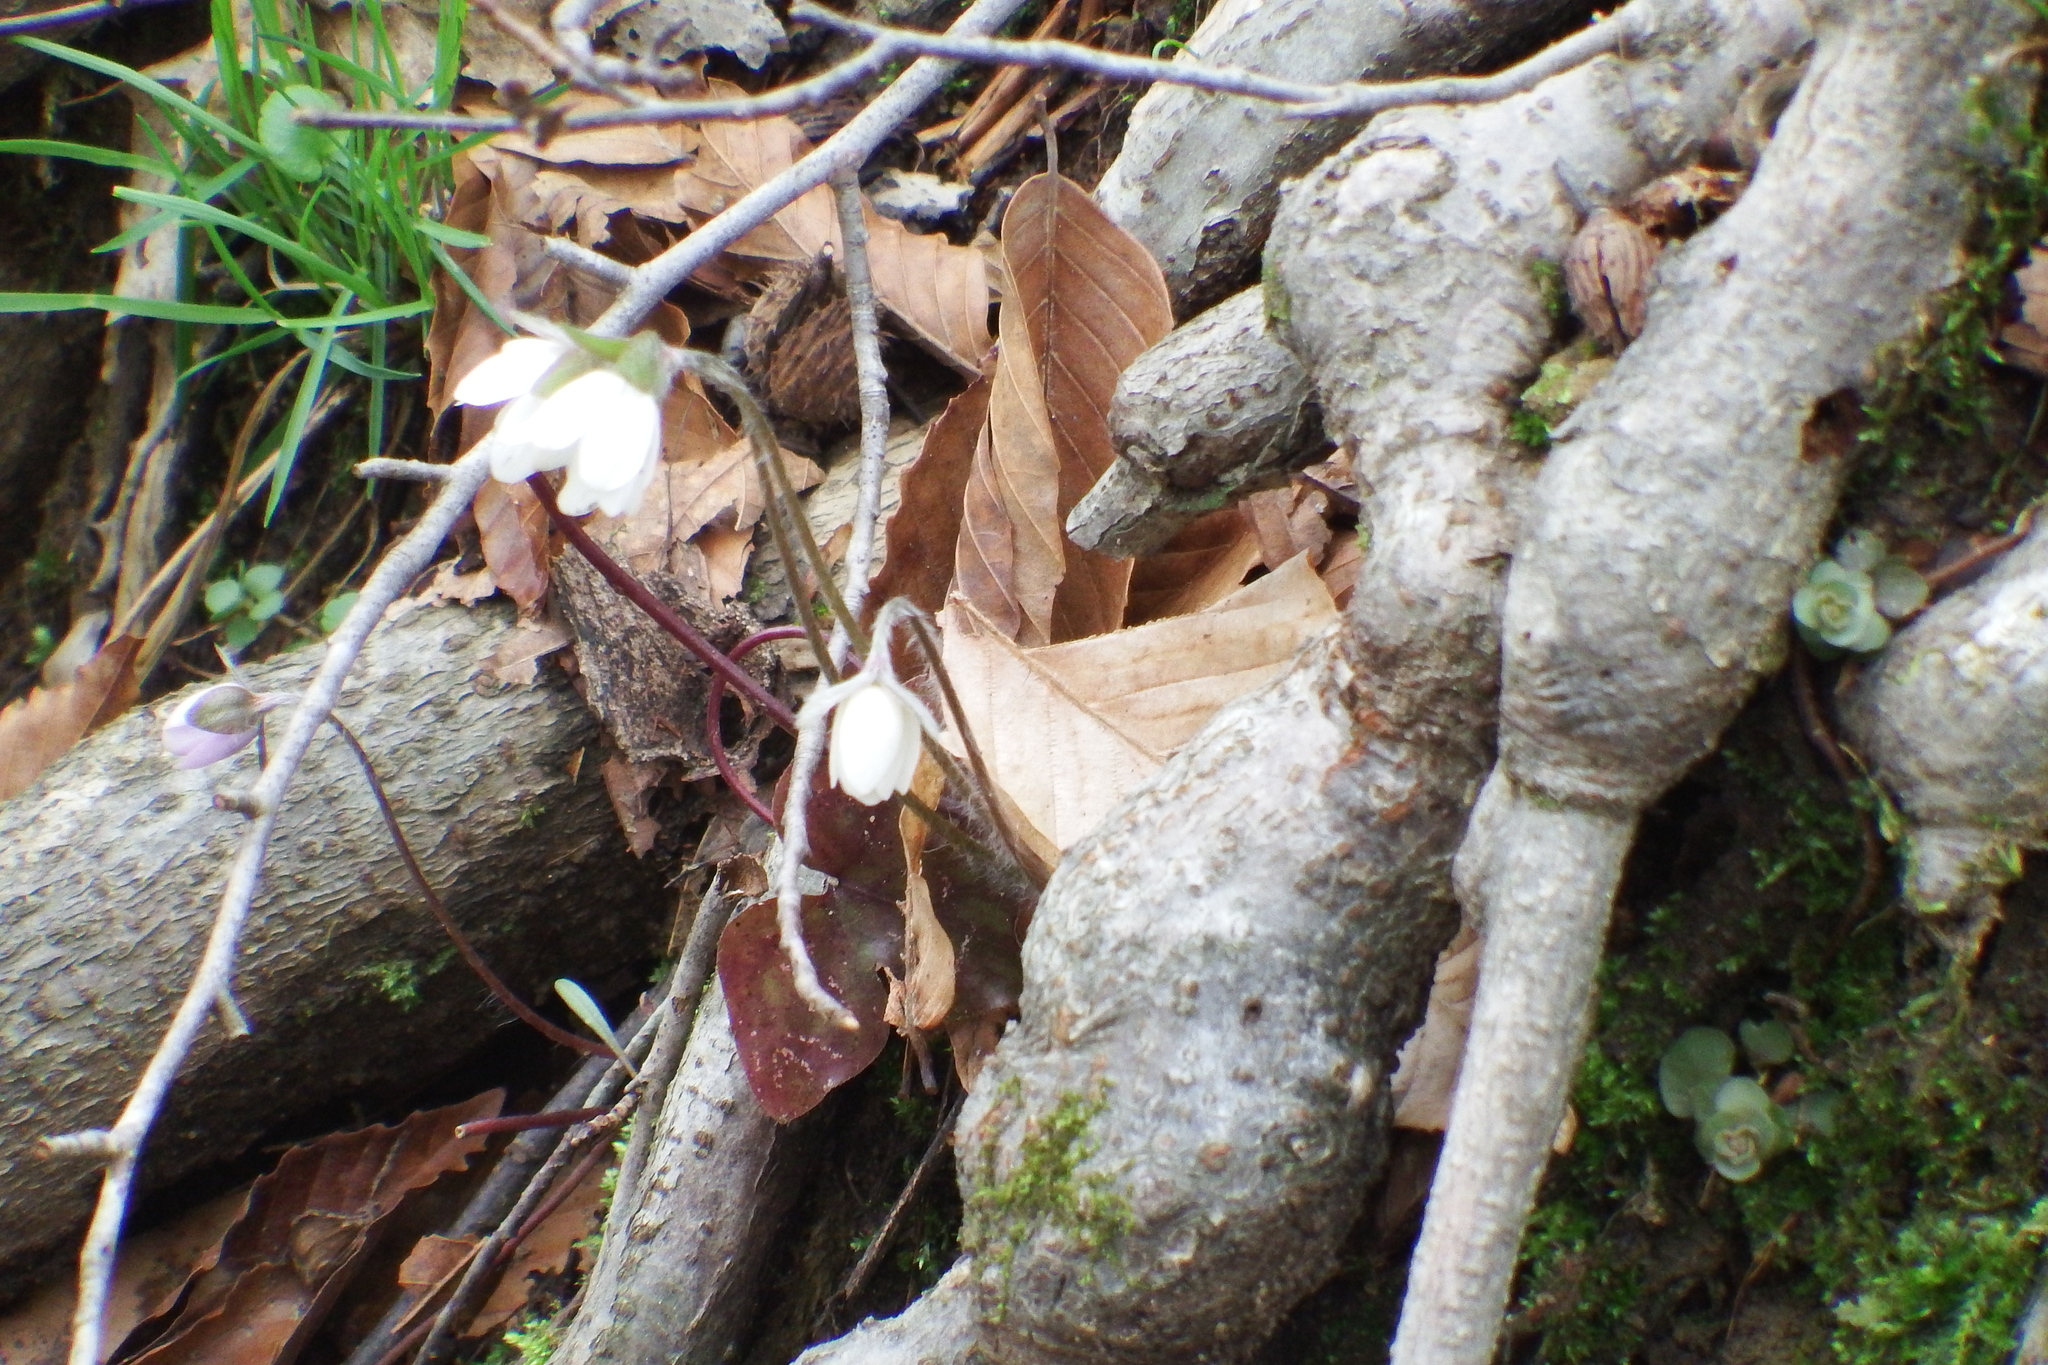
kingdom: Plantae
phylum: Tracheophyta
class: Magnoliopsida
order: Ranunculales
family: Ranunculaceae
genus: Hepatica
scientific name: Hepatica acutiloba
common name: Sharp-lobed hepatica
